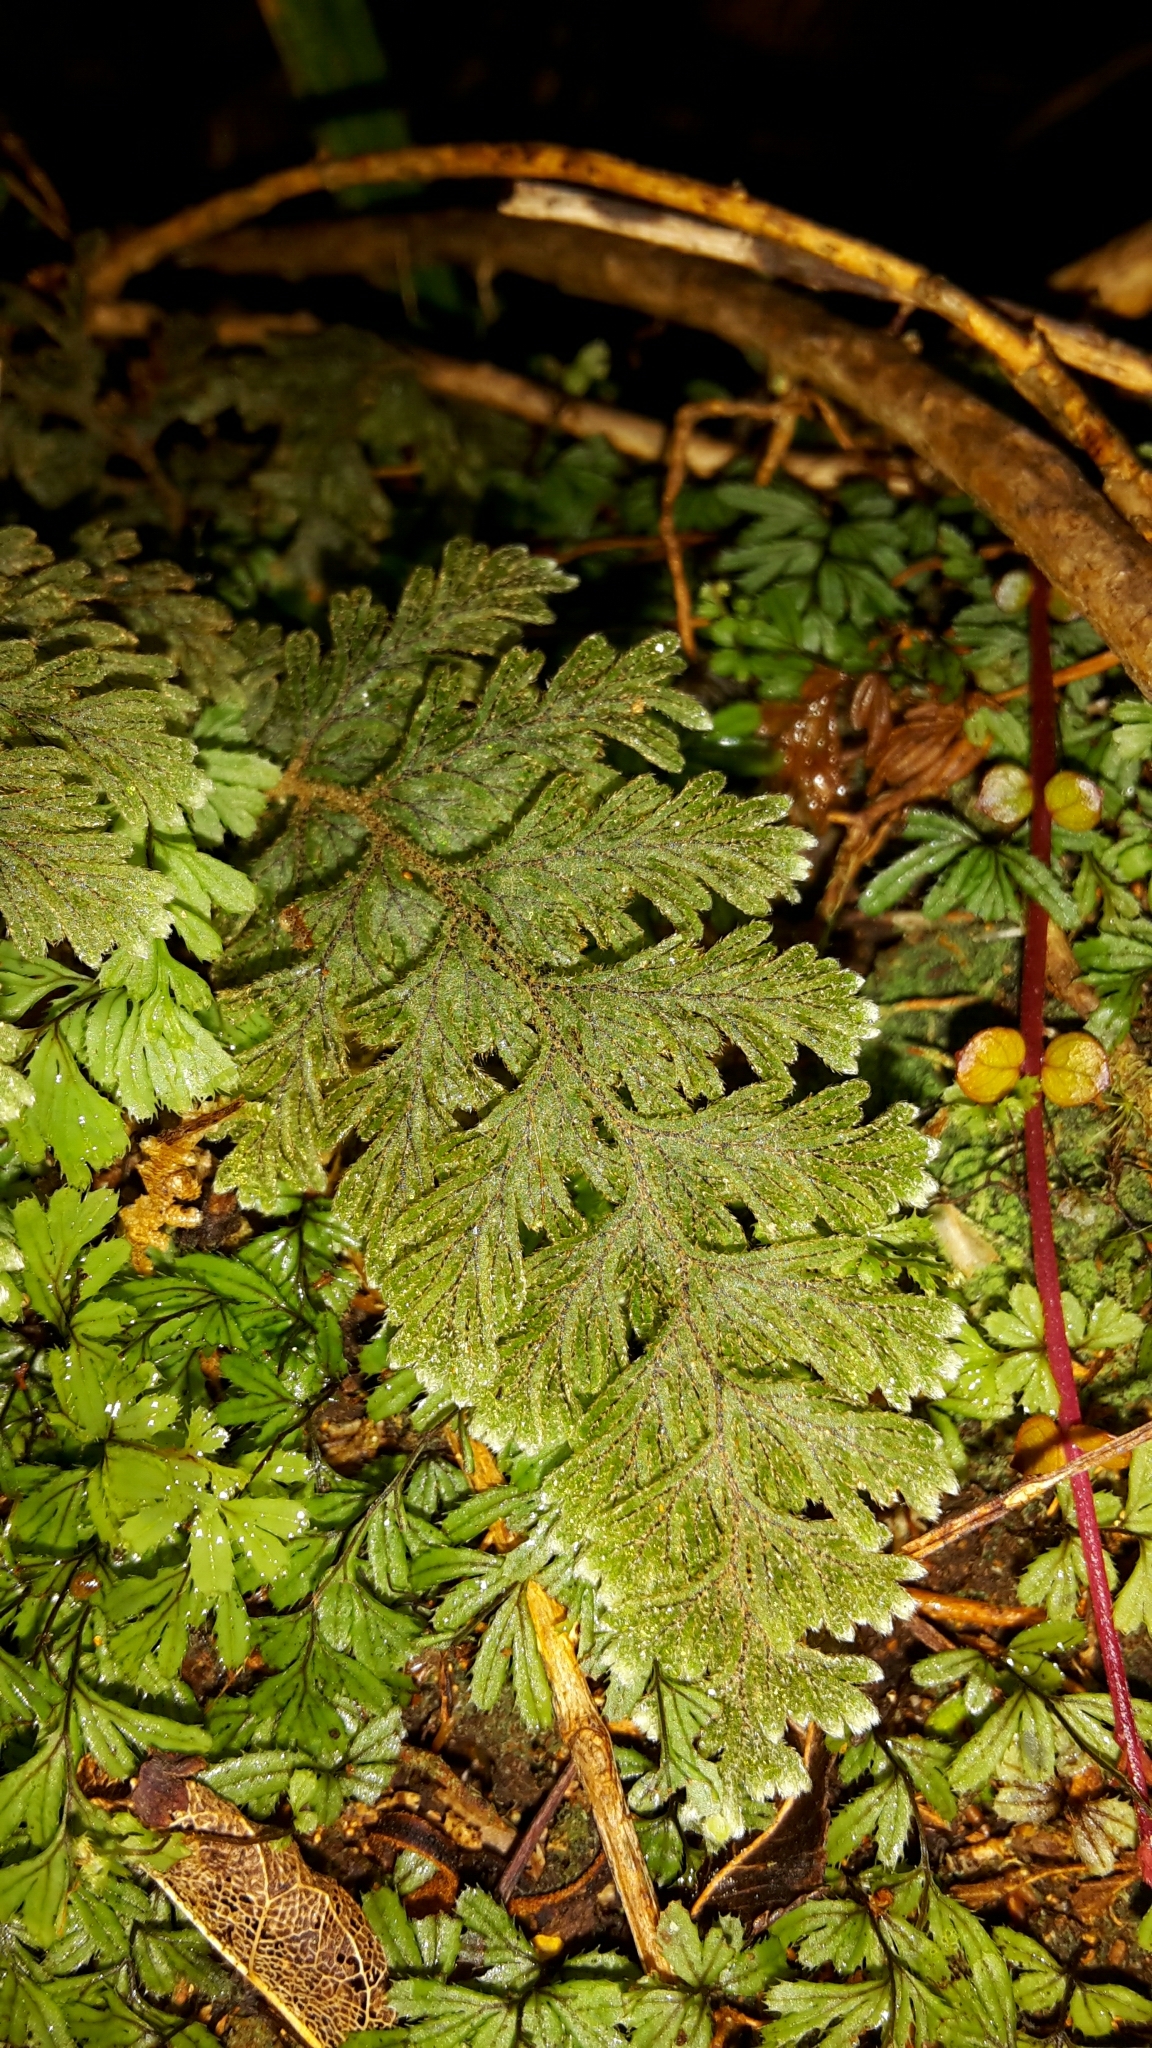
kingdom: Plantae
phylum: Tracheophyta
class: Polypodiopsida
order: Hymenophyllales
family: Hymenophyllaceae
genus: Hymenophyllum
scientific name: Hymenophyllum frankliniae
